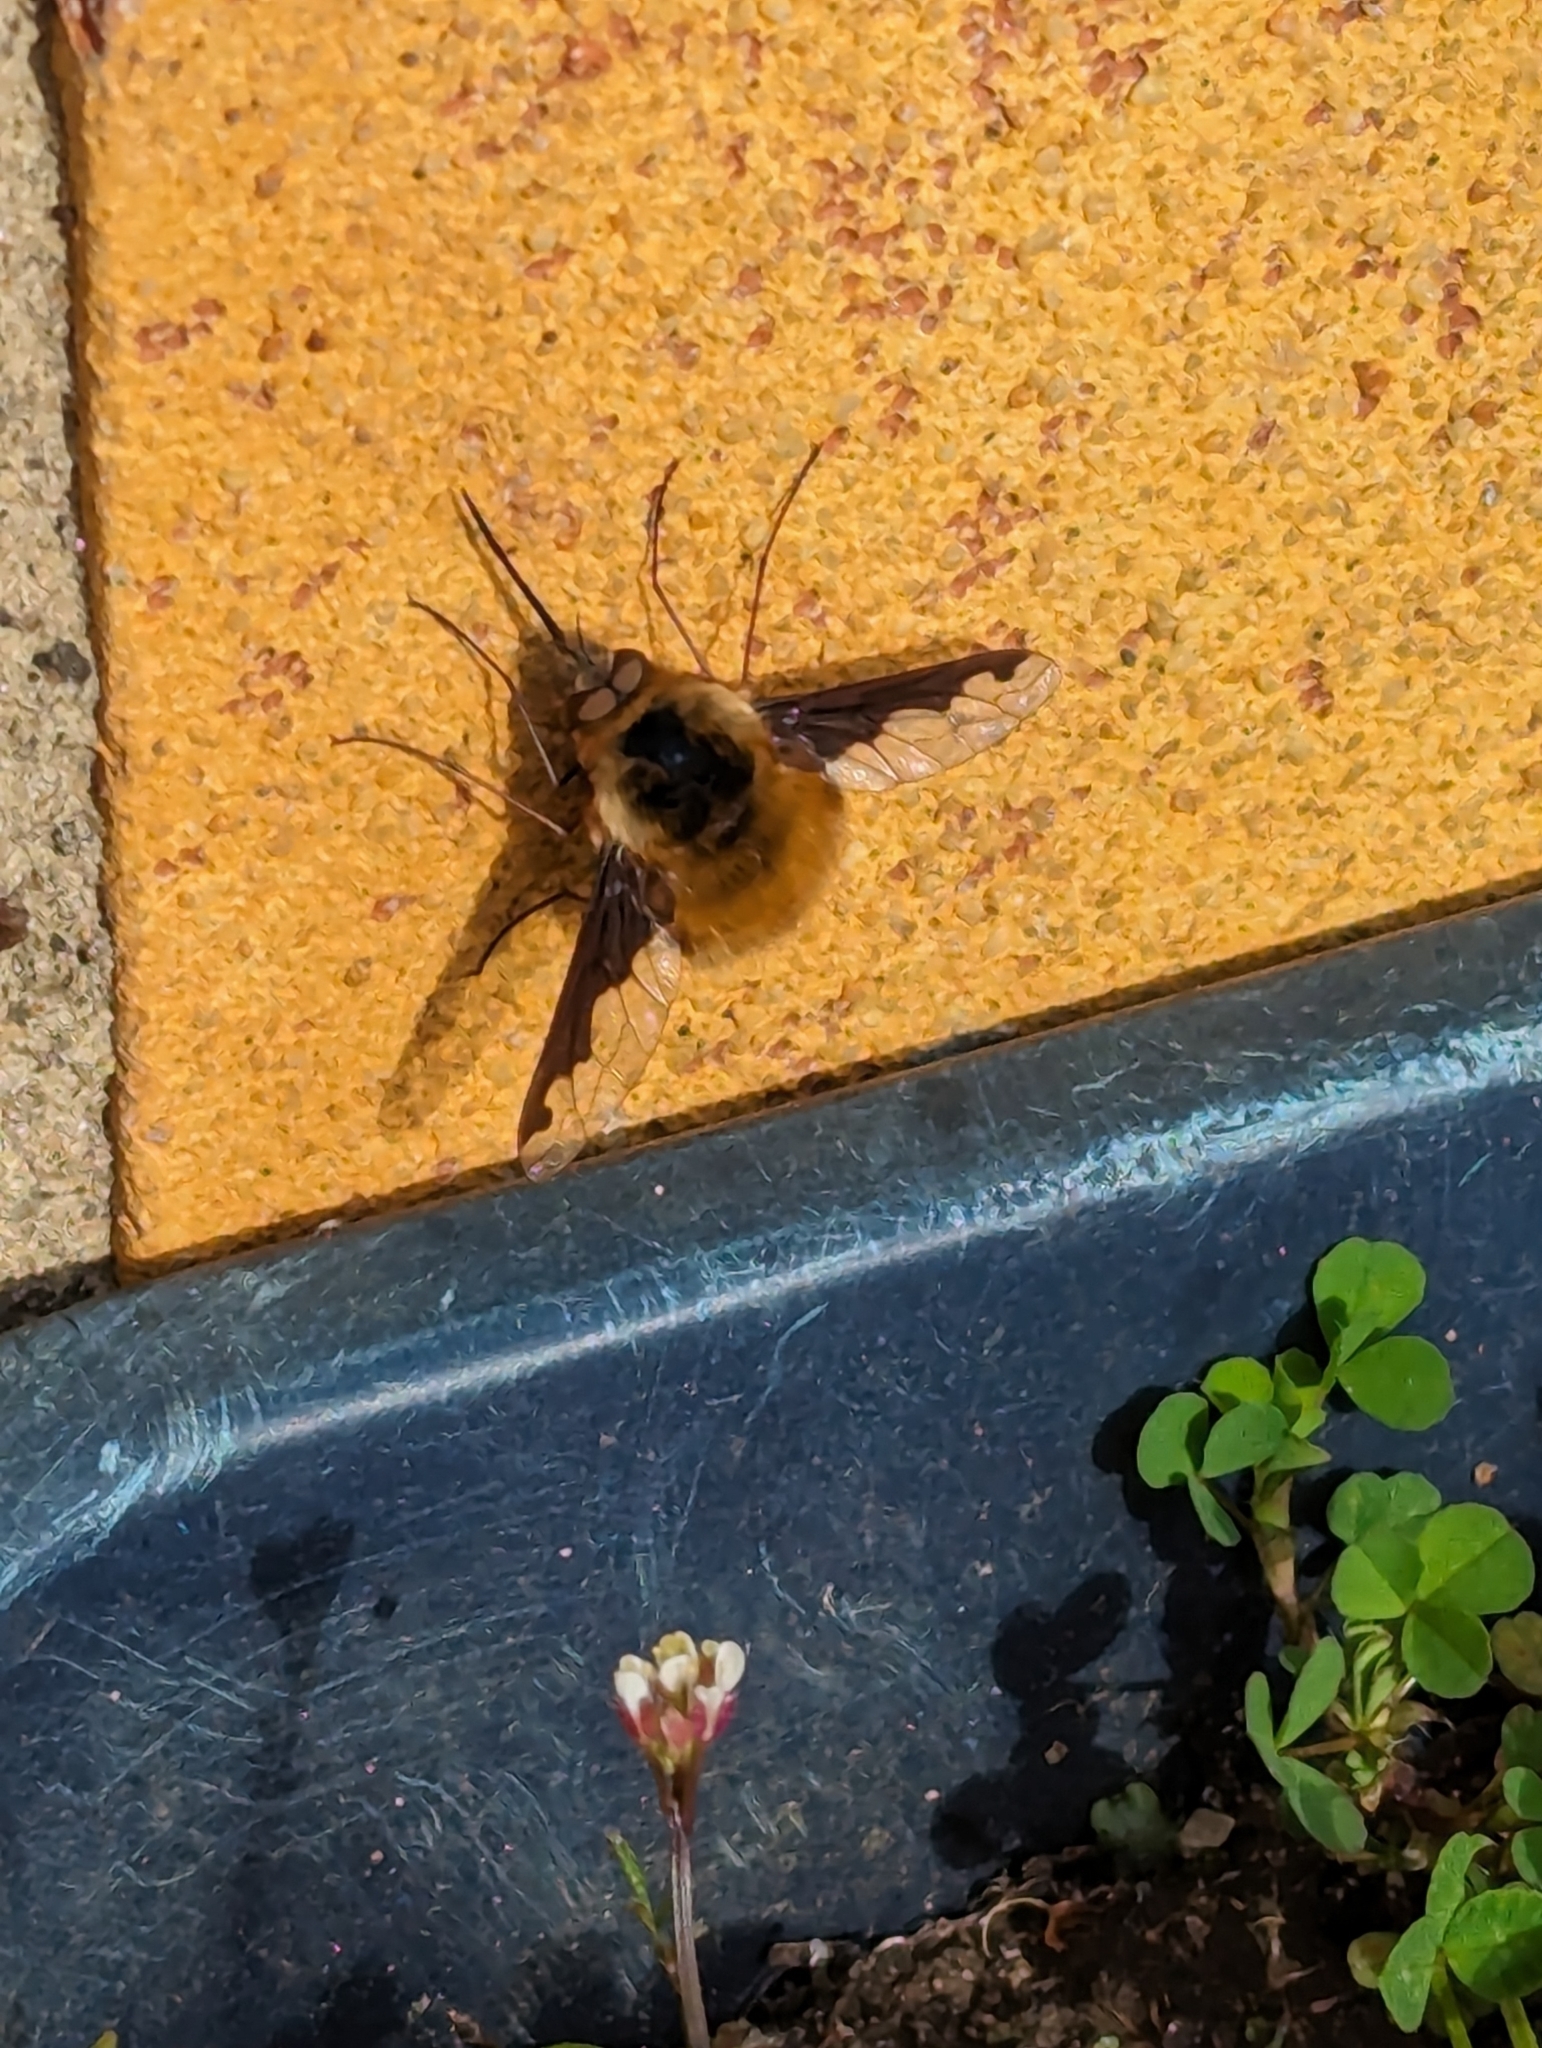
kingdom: Animalia
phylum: Arthropoda
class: Insecta
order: Diptera
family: Bombyliidae
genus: Bombylius
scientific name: Bombylius major
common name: Bee fly
